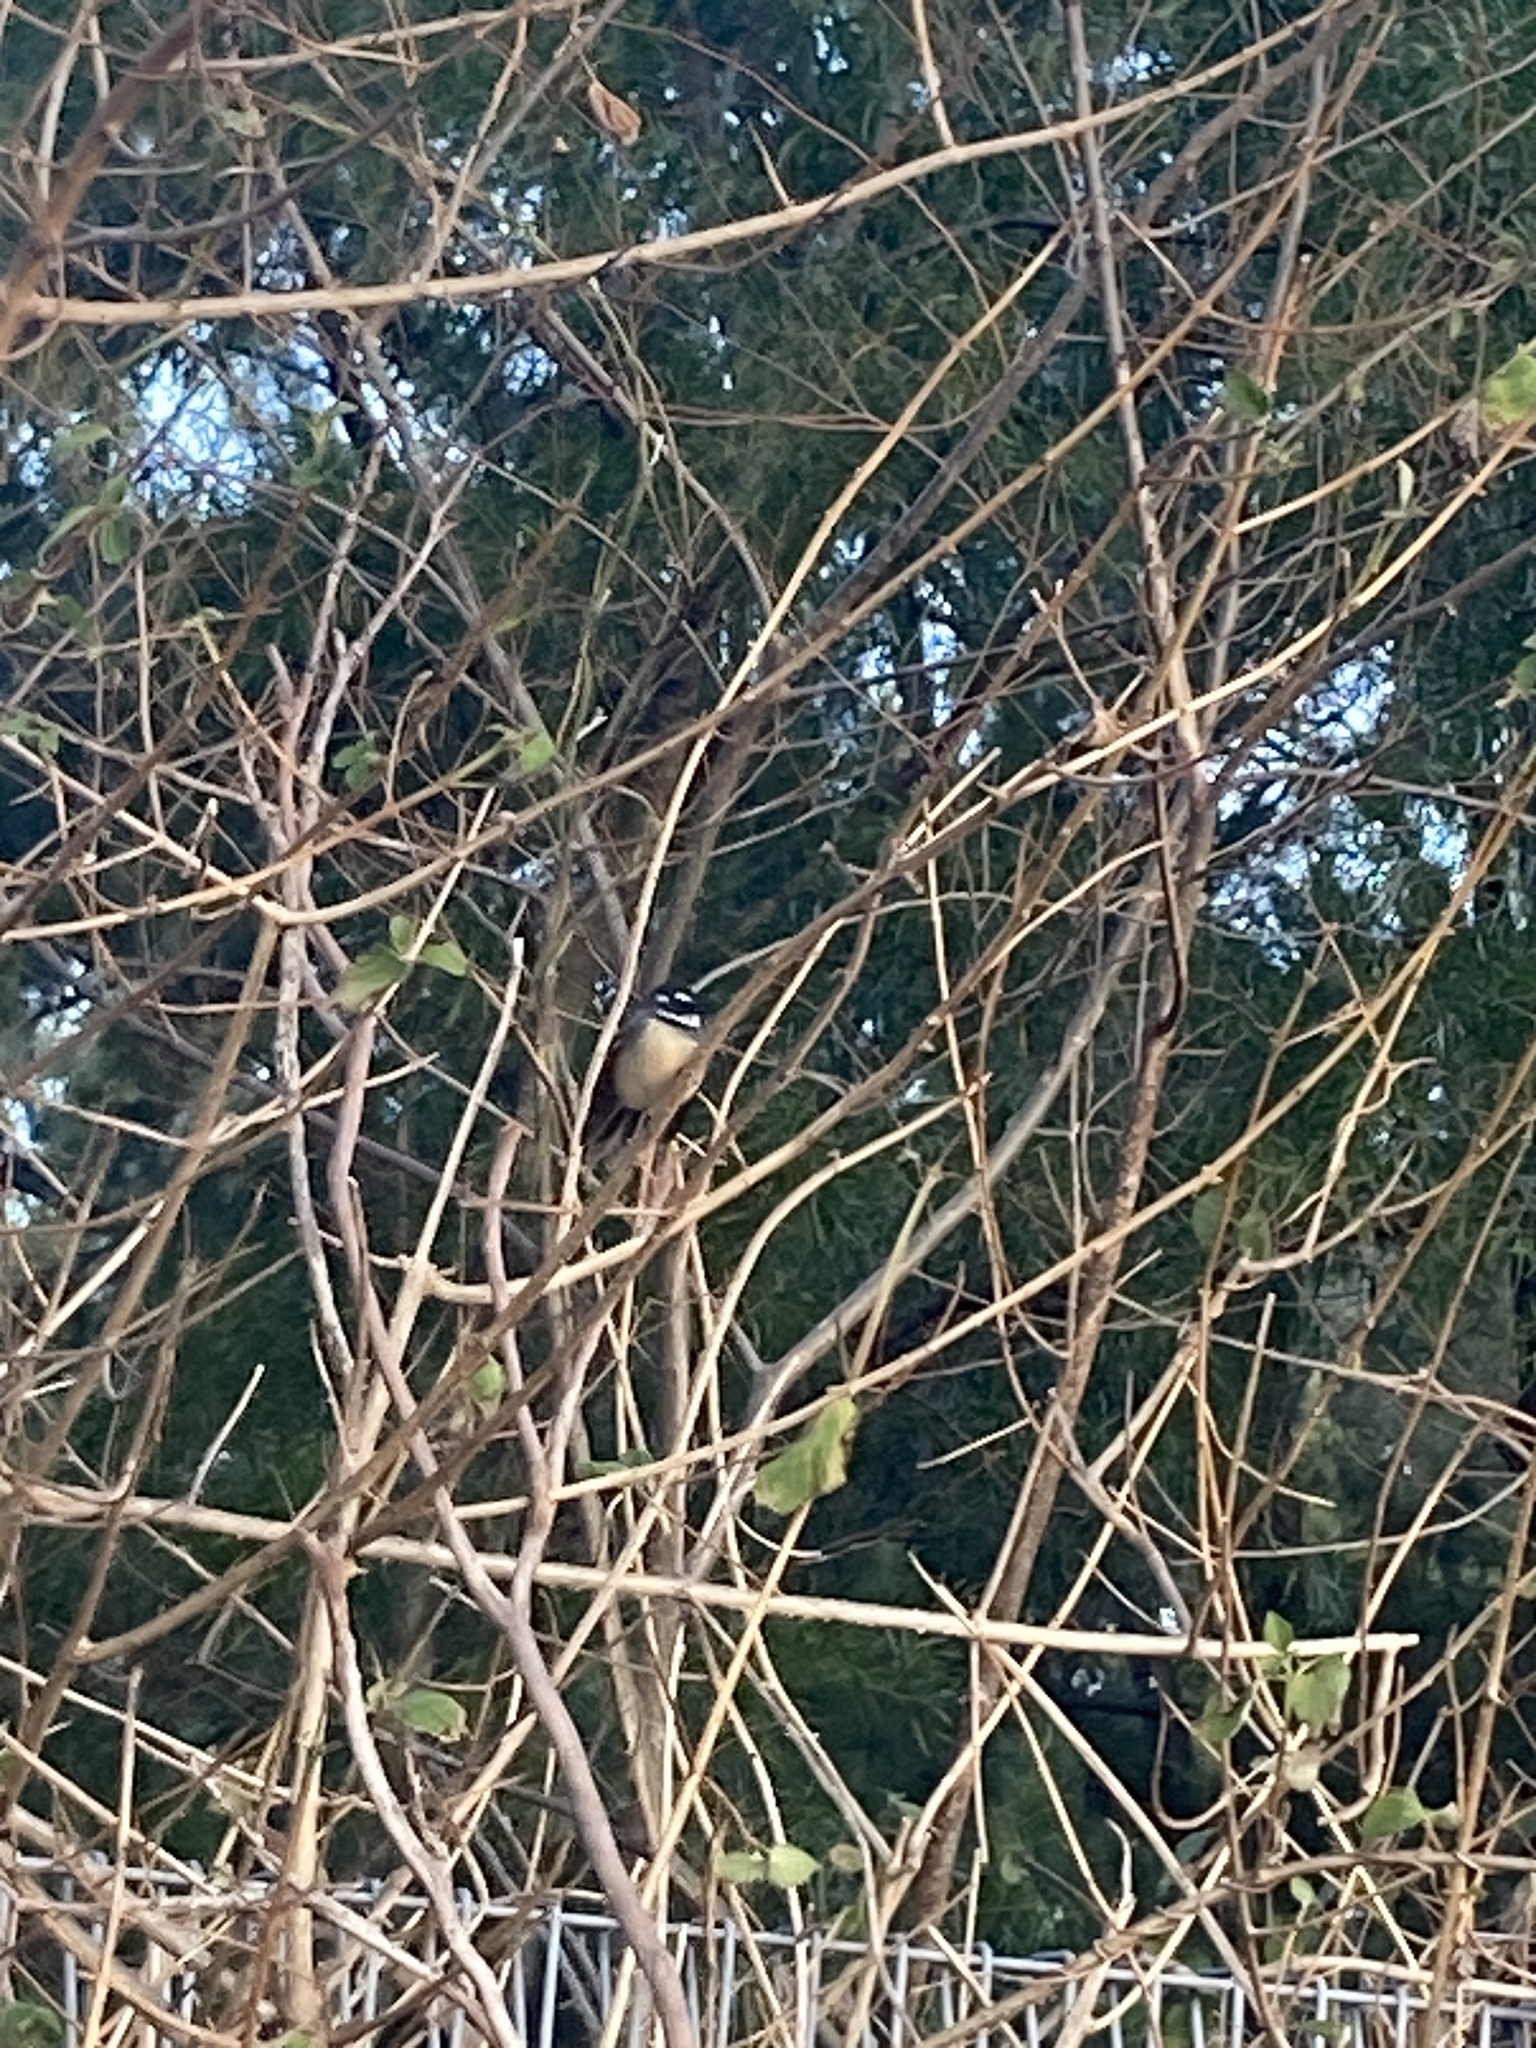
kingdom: Animalia
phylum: Chordata
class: Aves
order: Passeriformes
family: Rhipiduridae
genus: Rhipidura
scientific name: Rhipidura albiscapa
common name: Grey fantail
